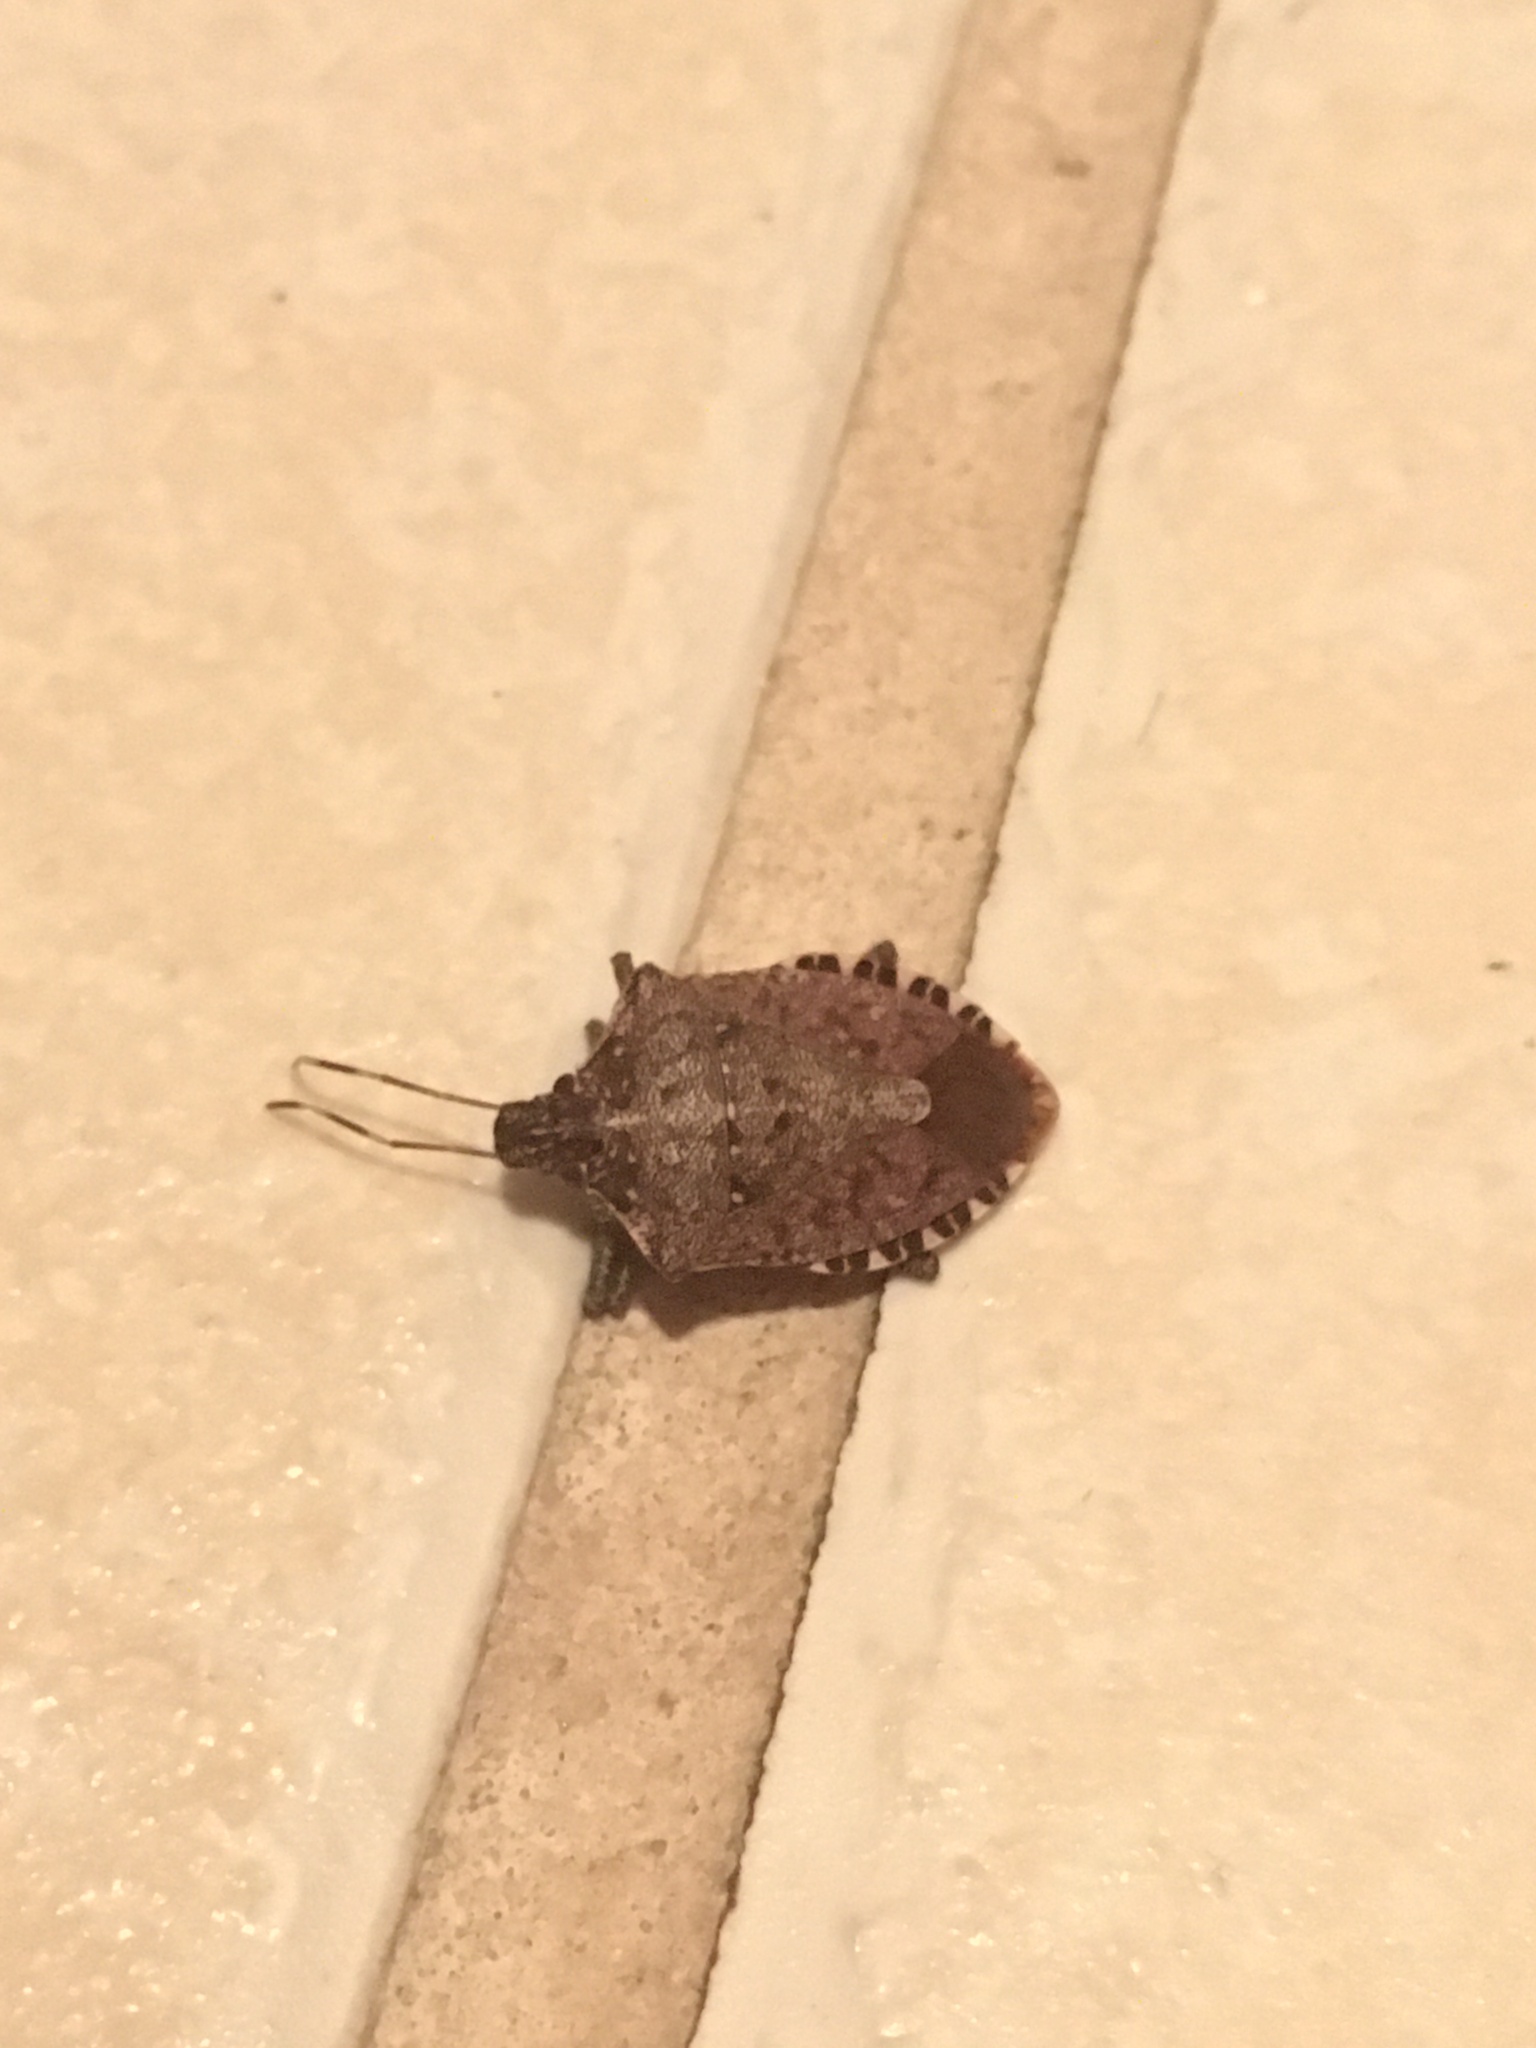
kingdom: Animalia
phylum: Arthropoda
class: Insecta
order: Hemiptera
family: Pentatomidae
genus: Halyomorpha
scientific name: Halyomorpha halys
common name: Brown marmorated stink bug
